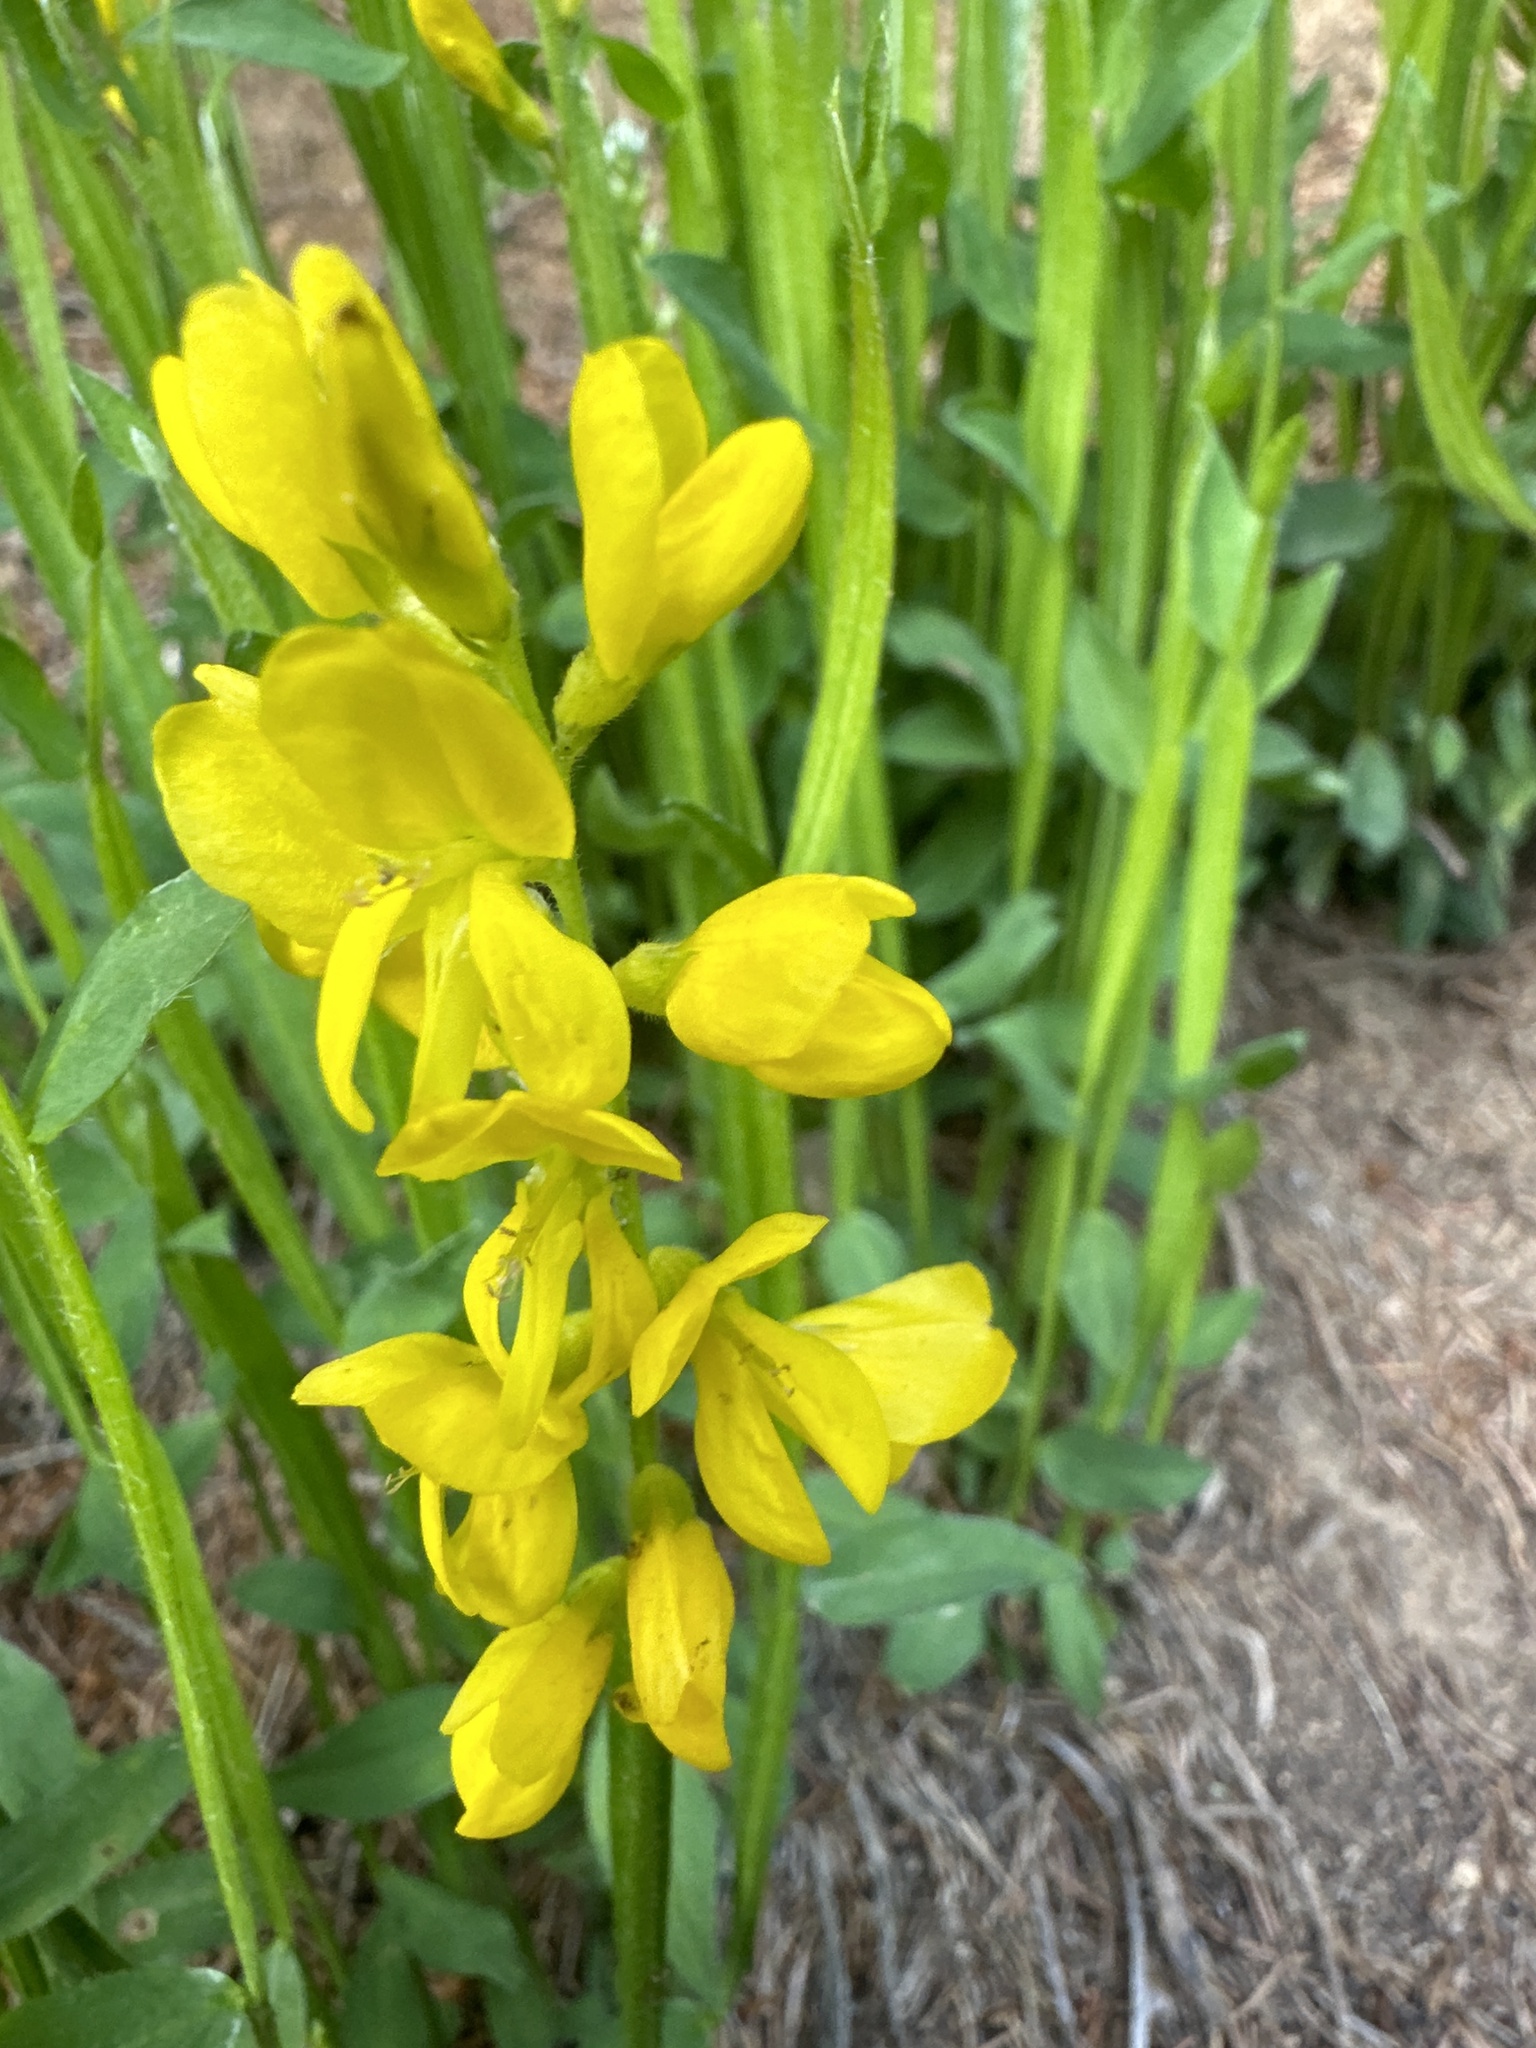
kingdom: Plantae
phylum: Tracheophyta
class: Magnoliopsida
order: Fabales
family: Fabaceae
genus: Genista
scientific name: Genista sagittalis
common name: Winged greenweed
